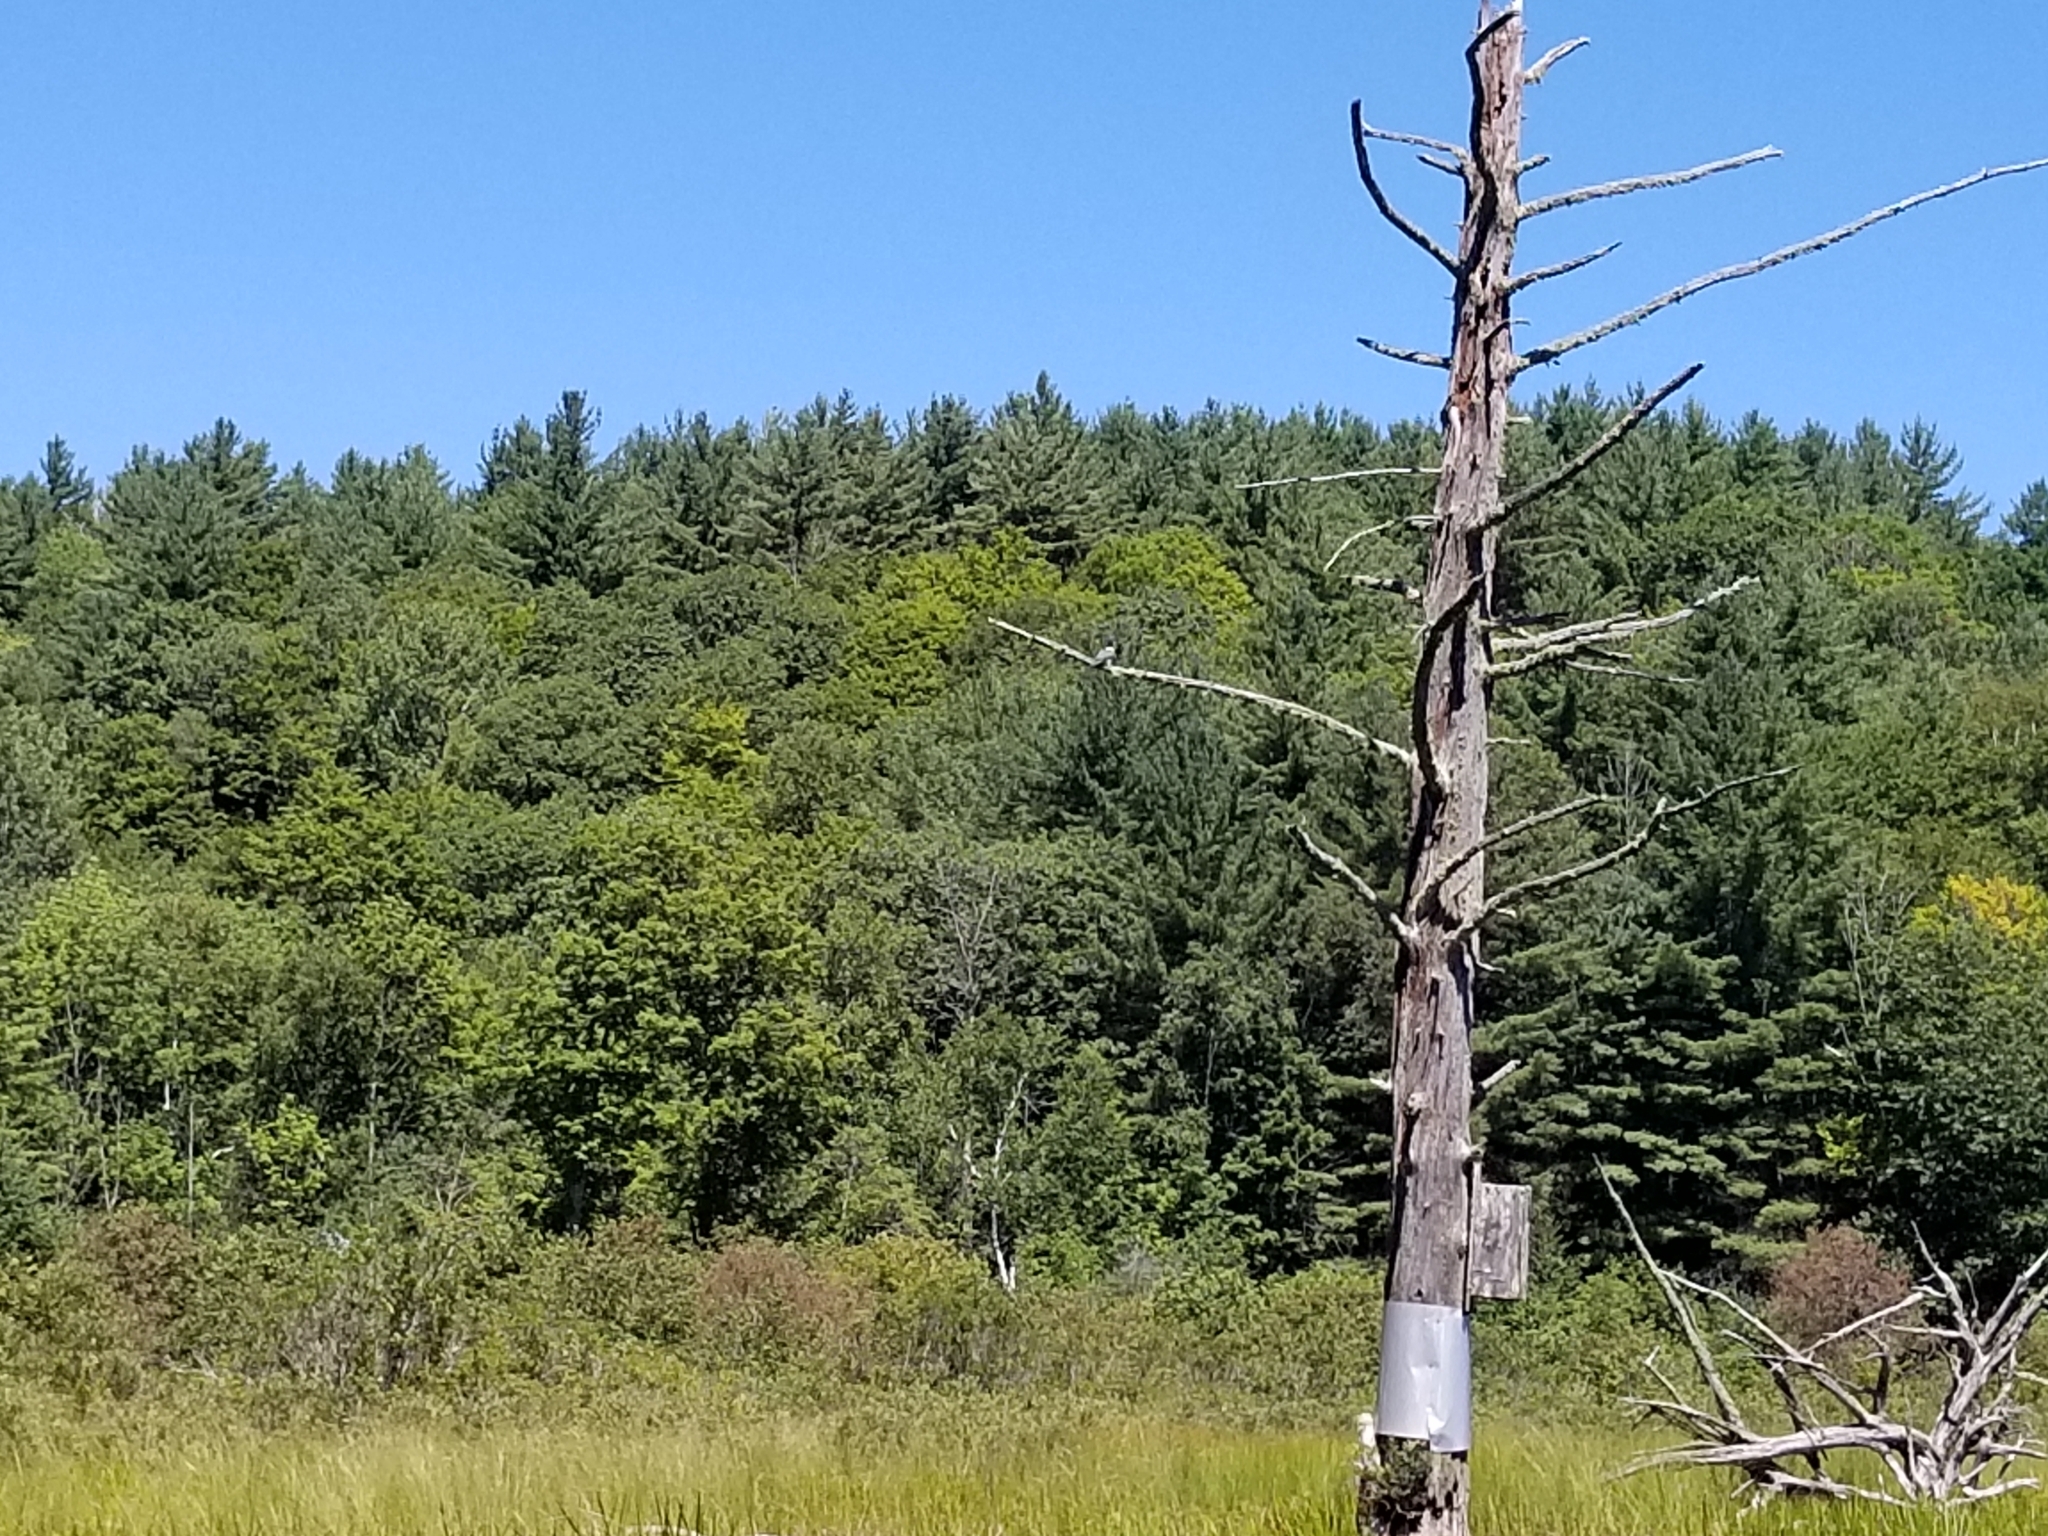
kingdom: Animalia
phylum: Chordata
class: Aves
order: Coraciiformes
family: Alcedinidae
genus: Megaceryle
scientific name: Megaceryle alcyon
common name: Belted kingfisher
